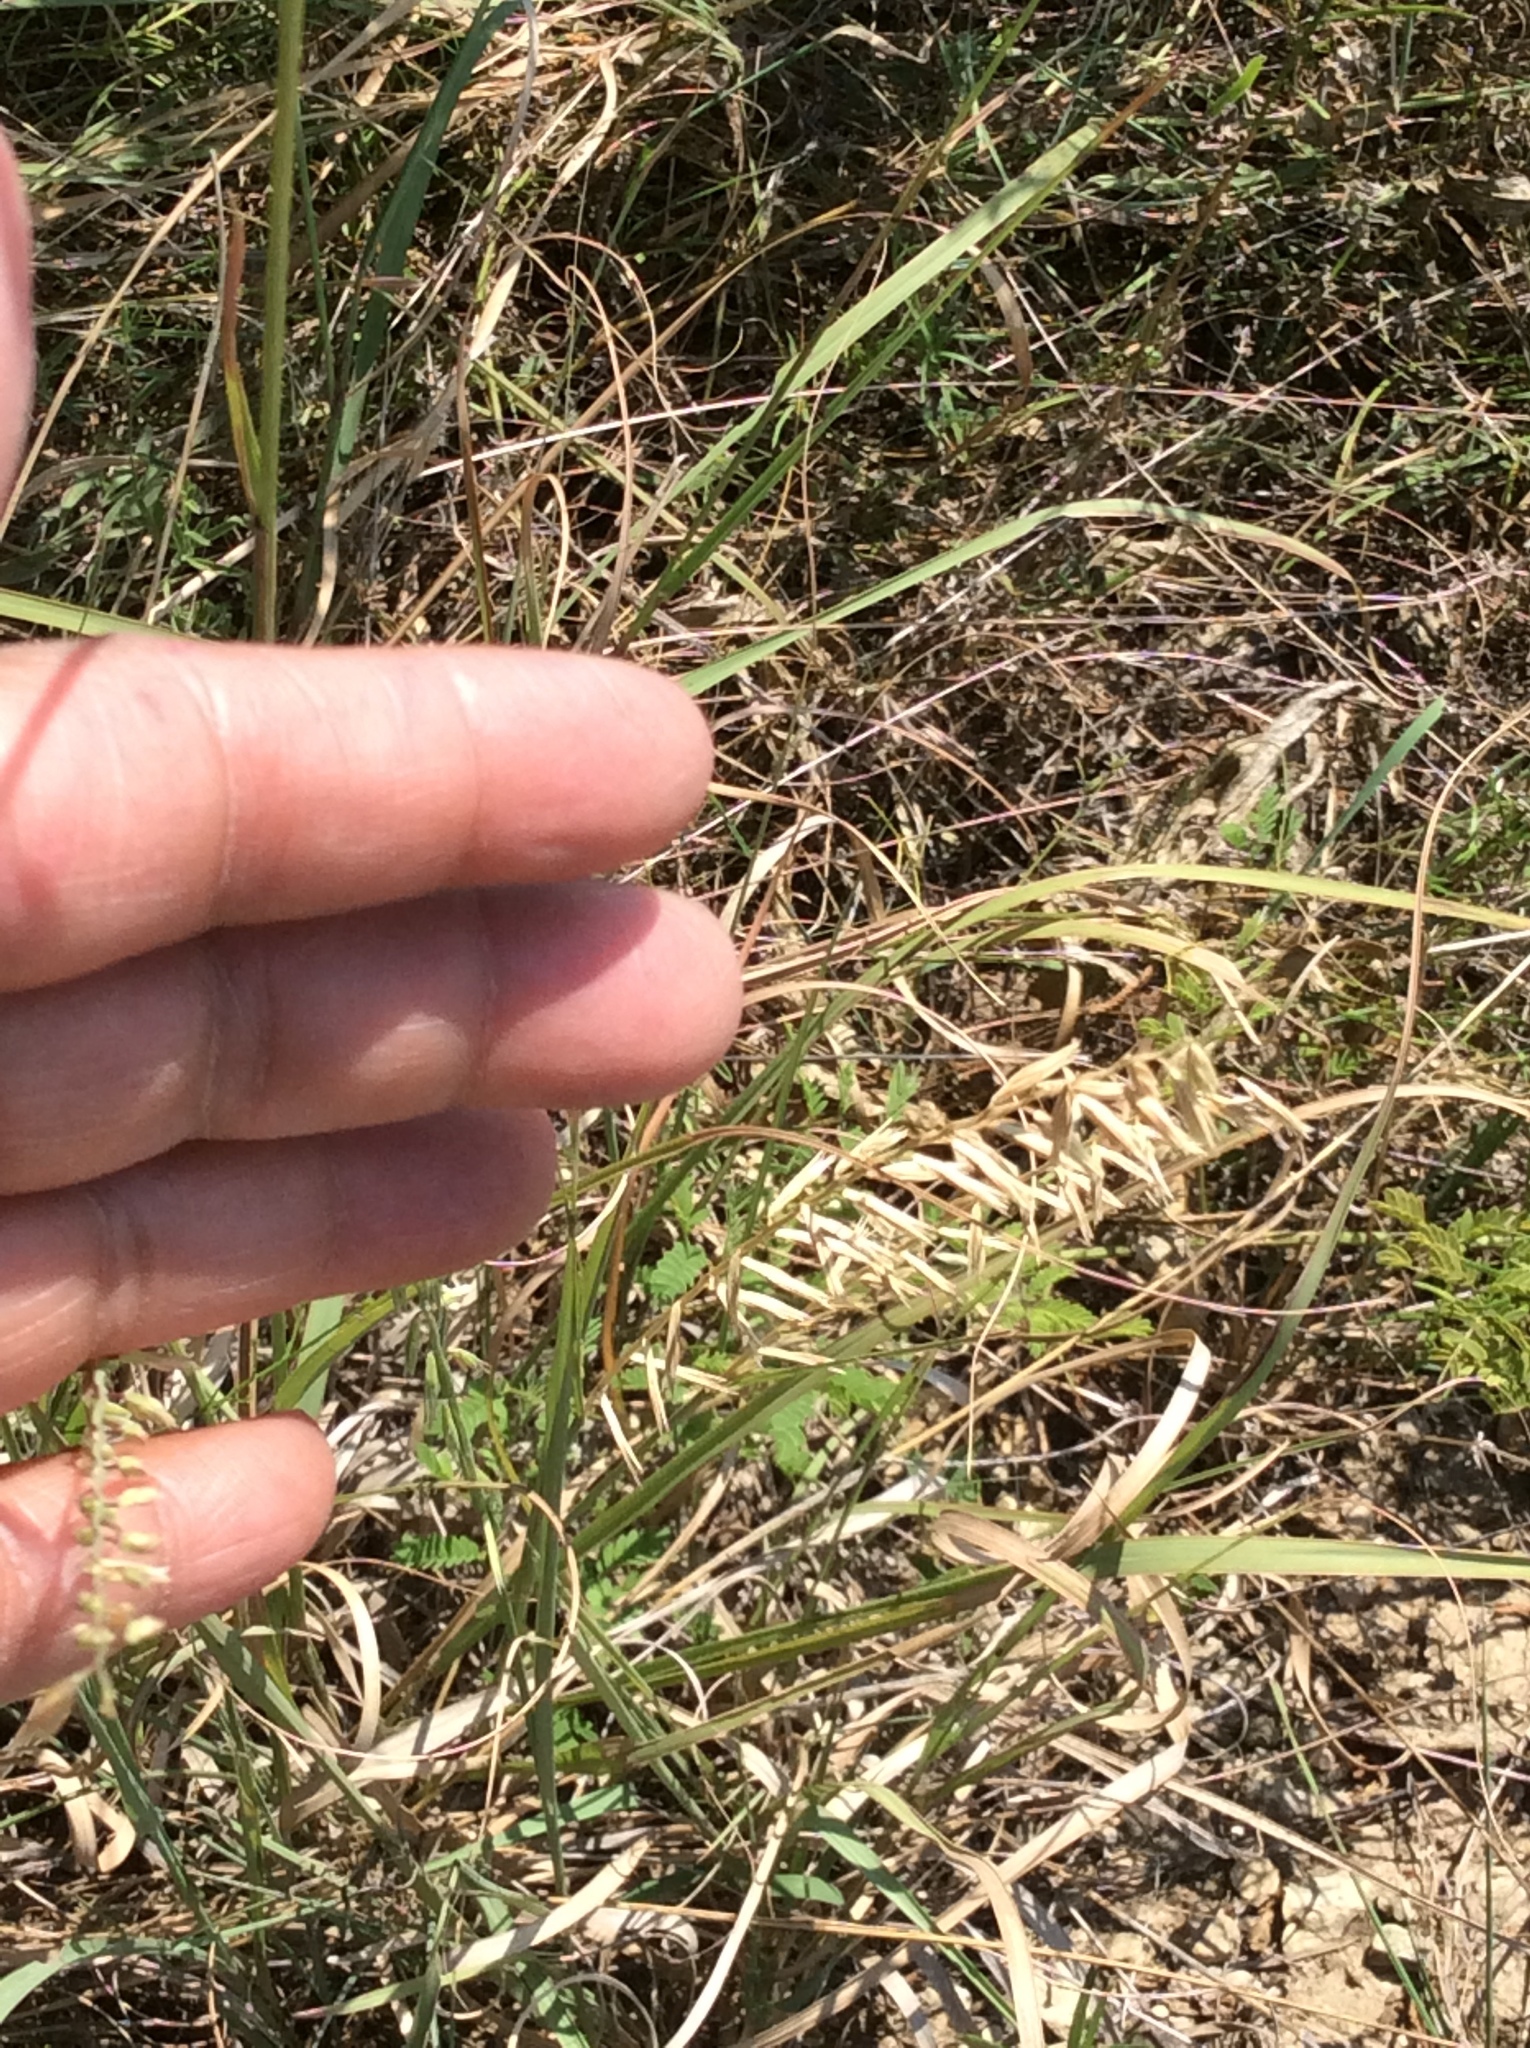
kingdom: Plantae
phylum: Tracheophyta
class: Liliopsida
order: Poales
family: Poaceae
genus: Bouteloua
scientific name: Bouteloua curtipendula
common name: Side-oats grama
